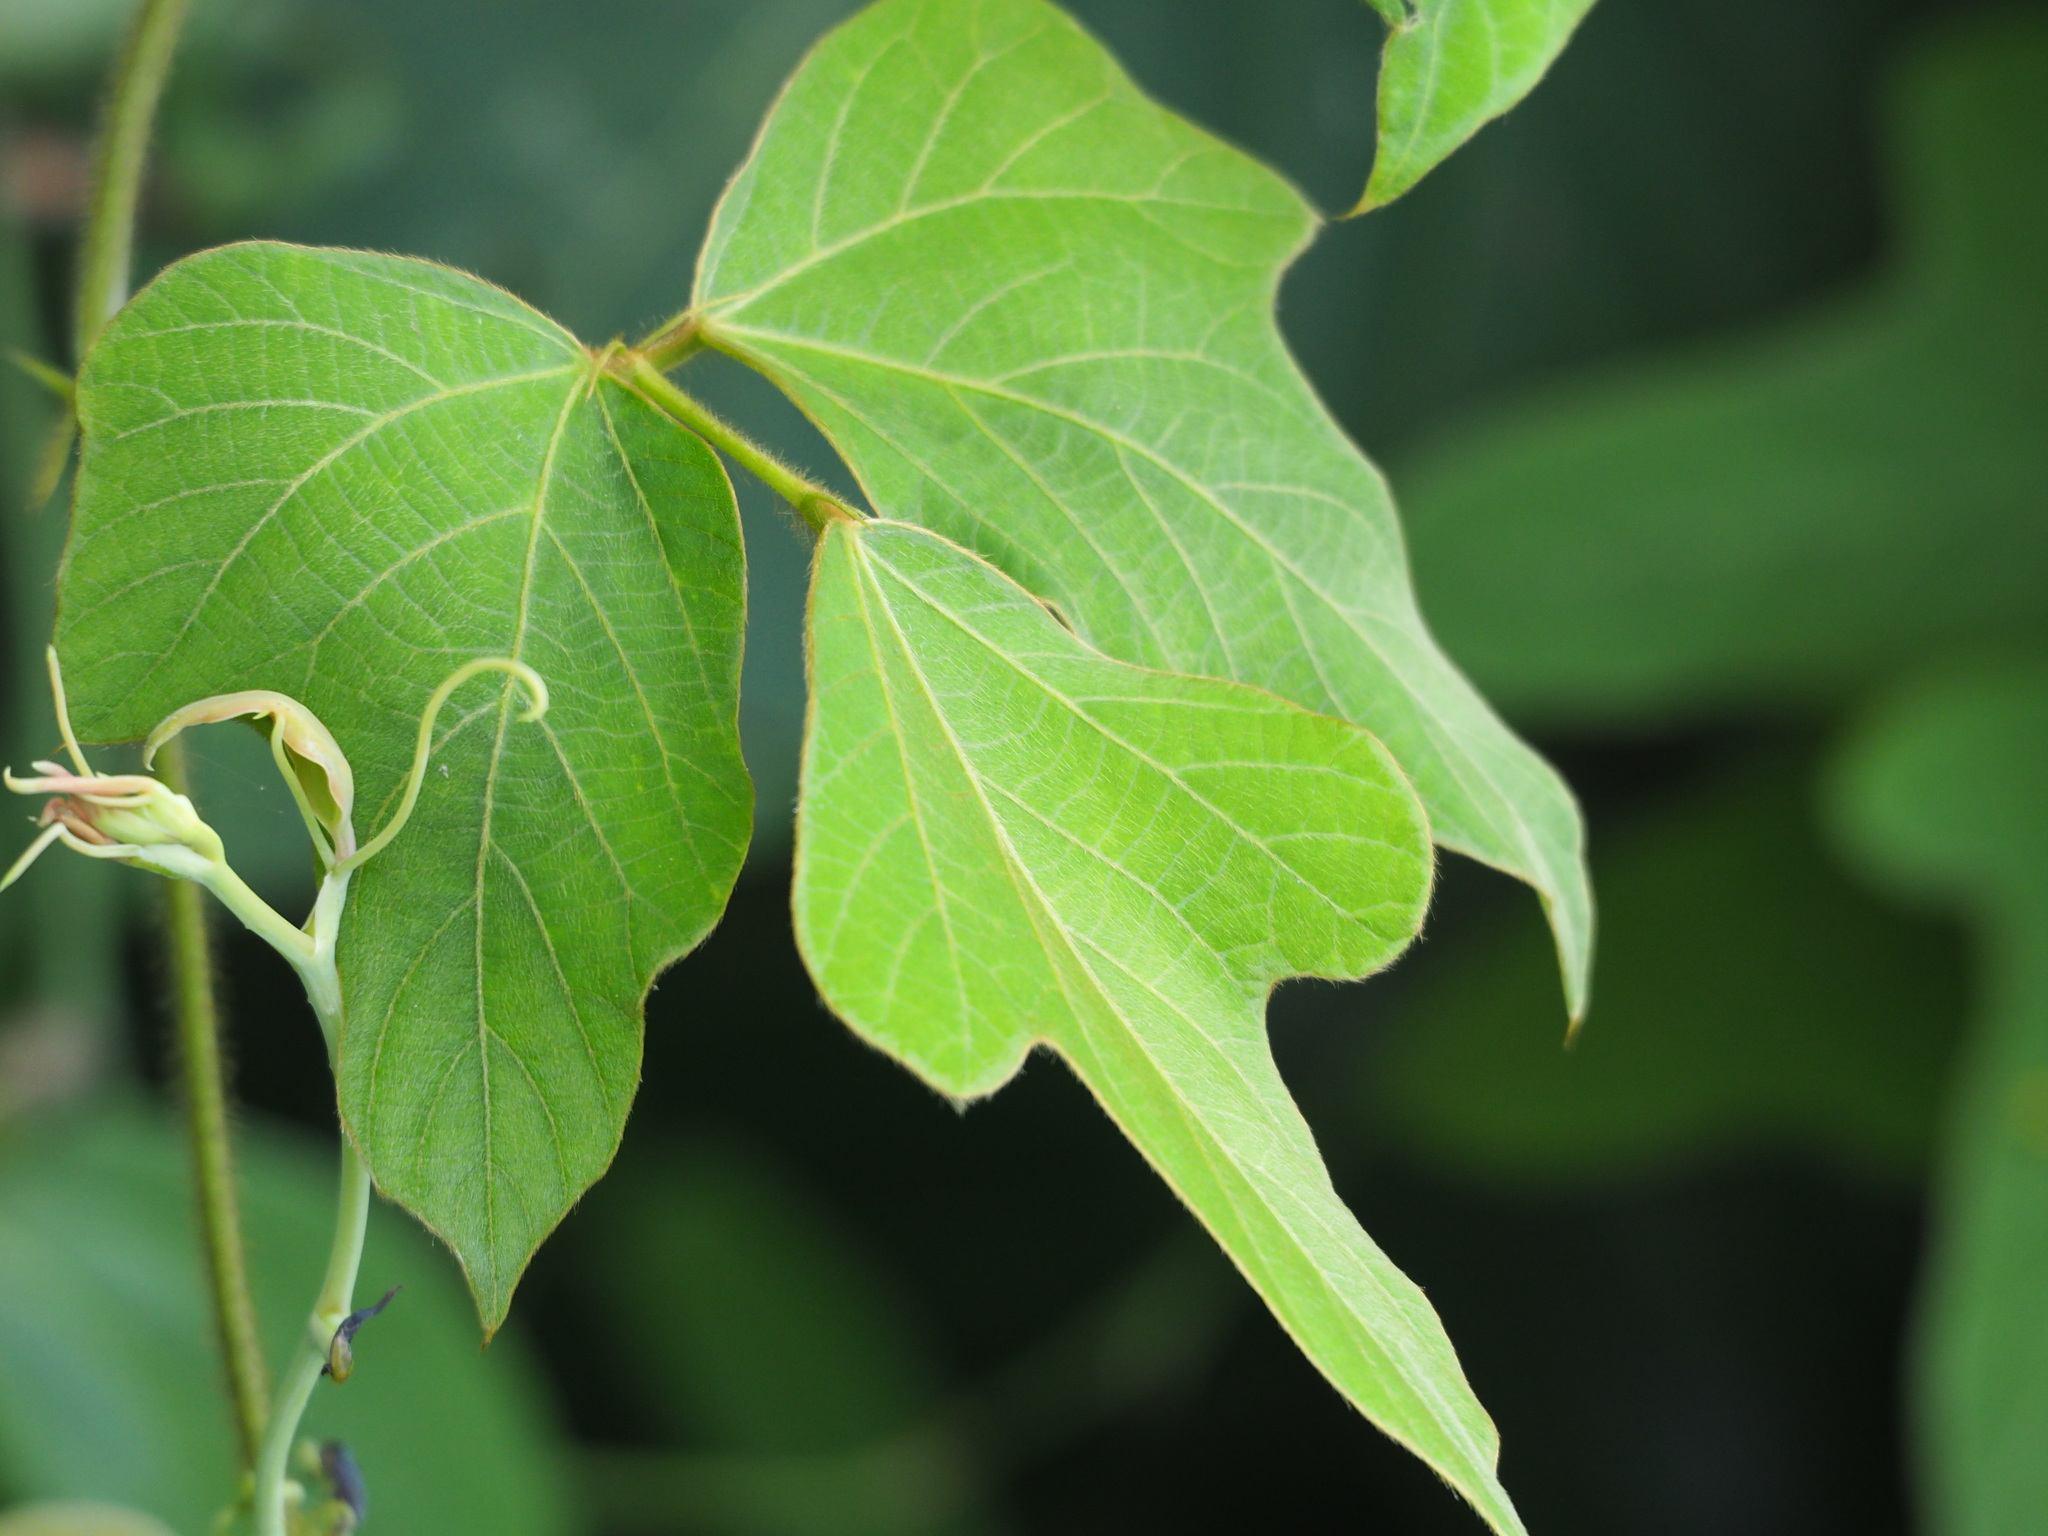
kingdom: Plantae
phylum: Tracheophyta
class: Magnoliopsida
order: Fabales
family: Fabaceae
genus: Pueraria
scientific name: Pueraria montana
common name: Kudzu
